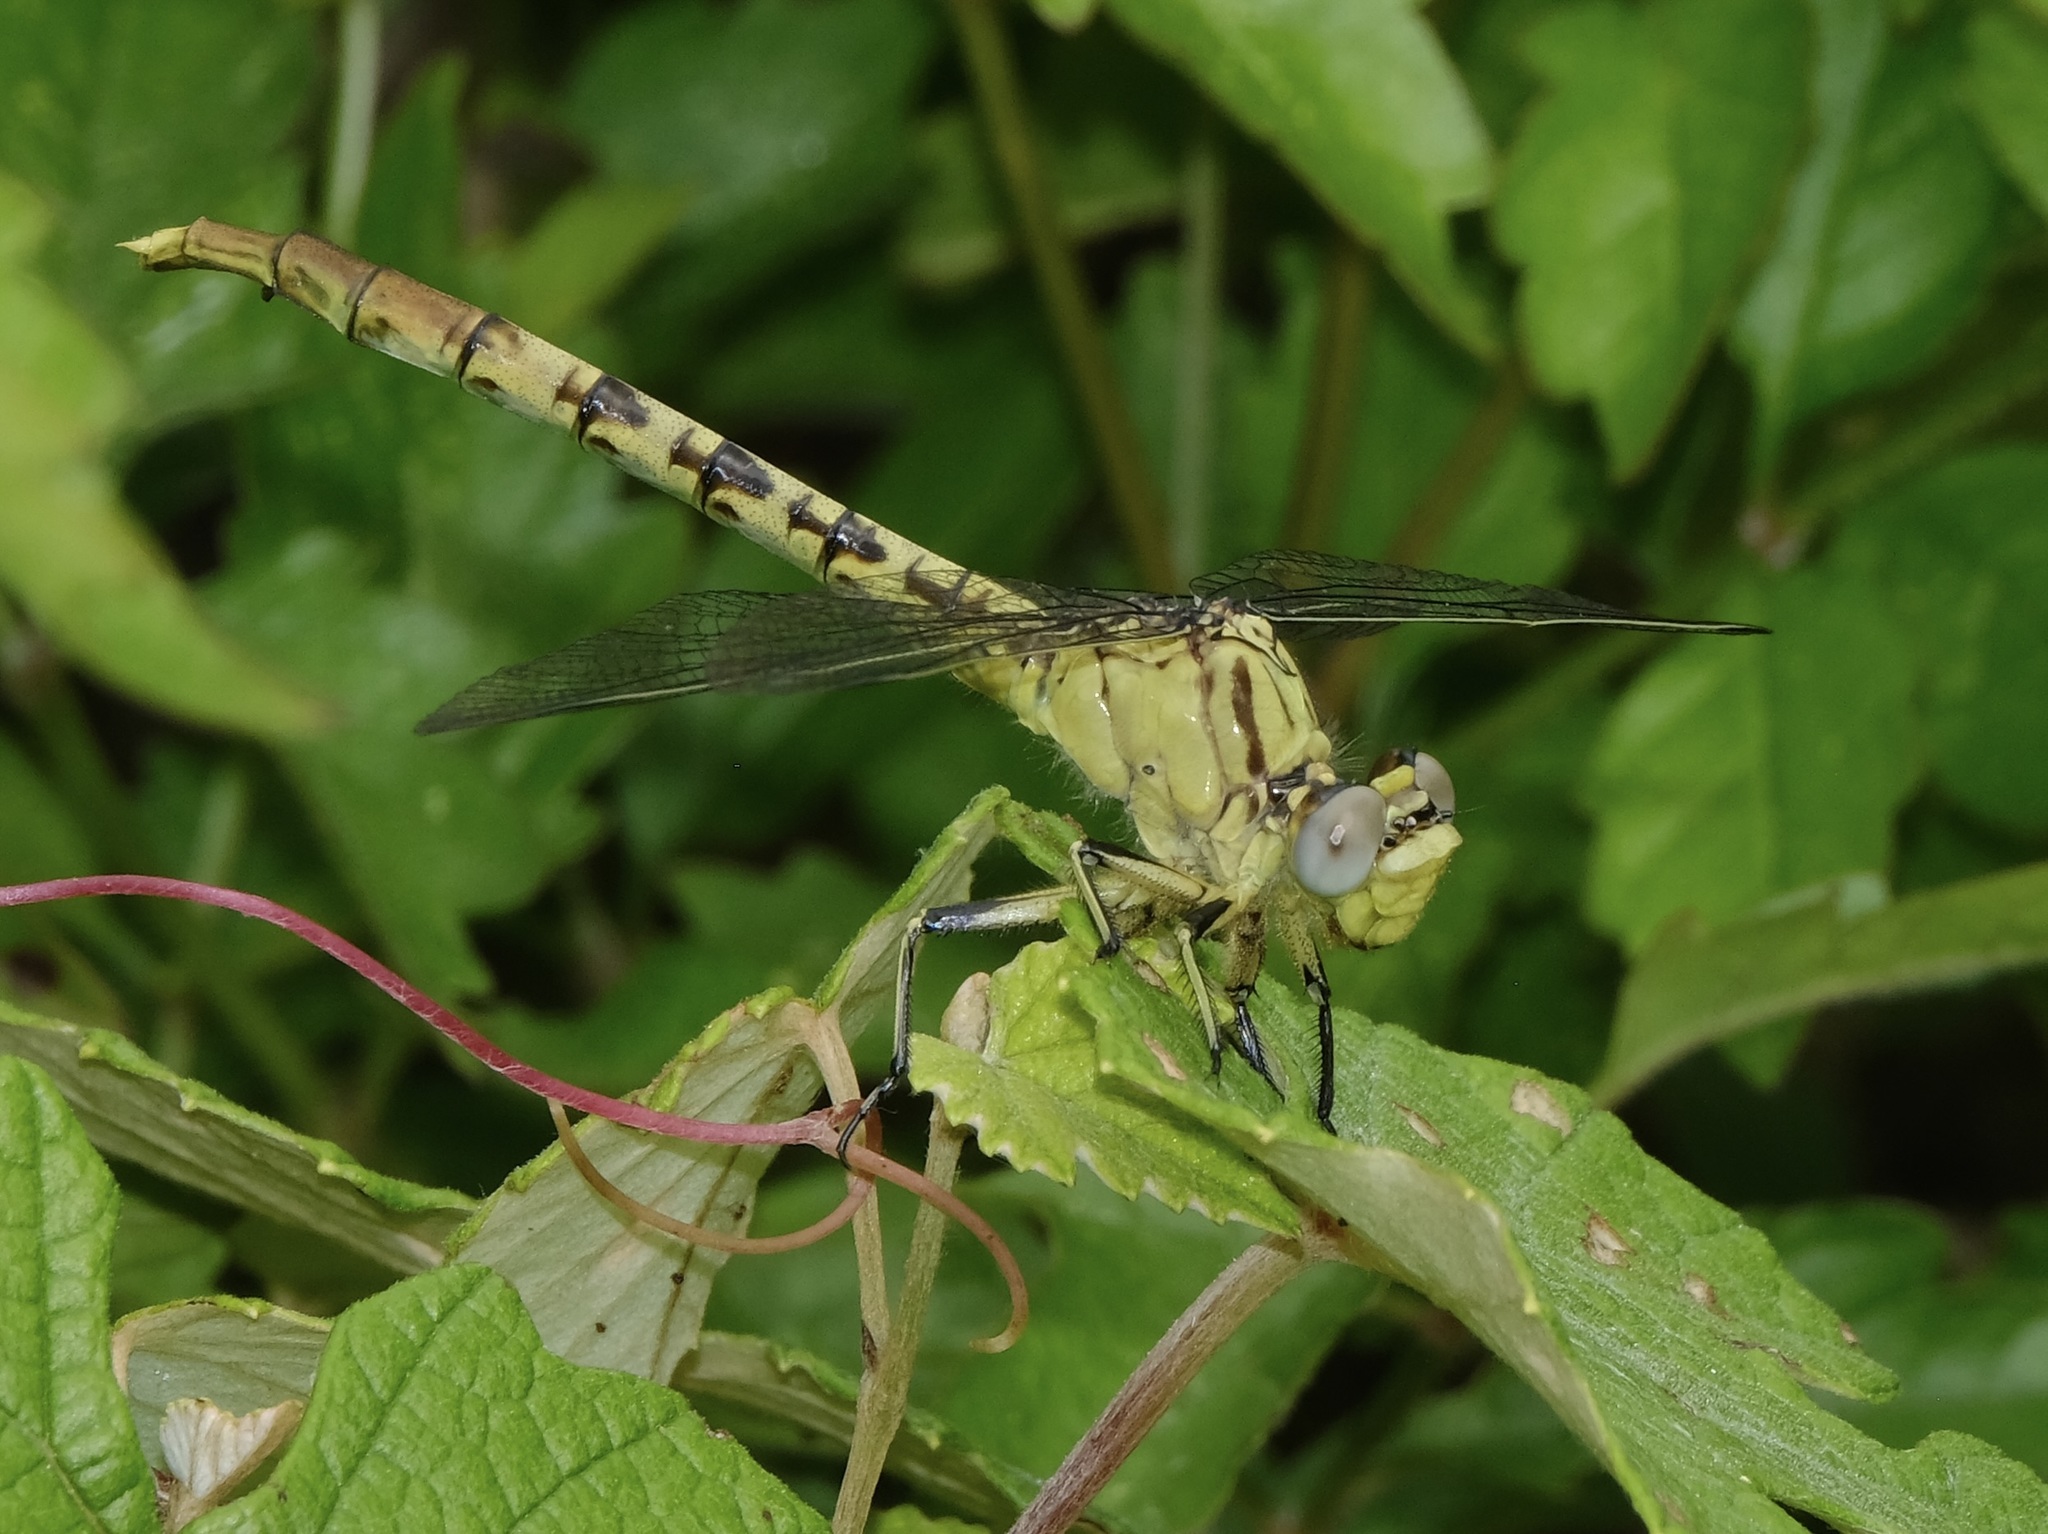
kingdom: Animalia
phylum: Arthropoda
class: Insecta
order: Odonata
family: Gomphidae
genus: Arigomphus
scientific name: Arigomphus submedianus
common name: Jade clubtail
